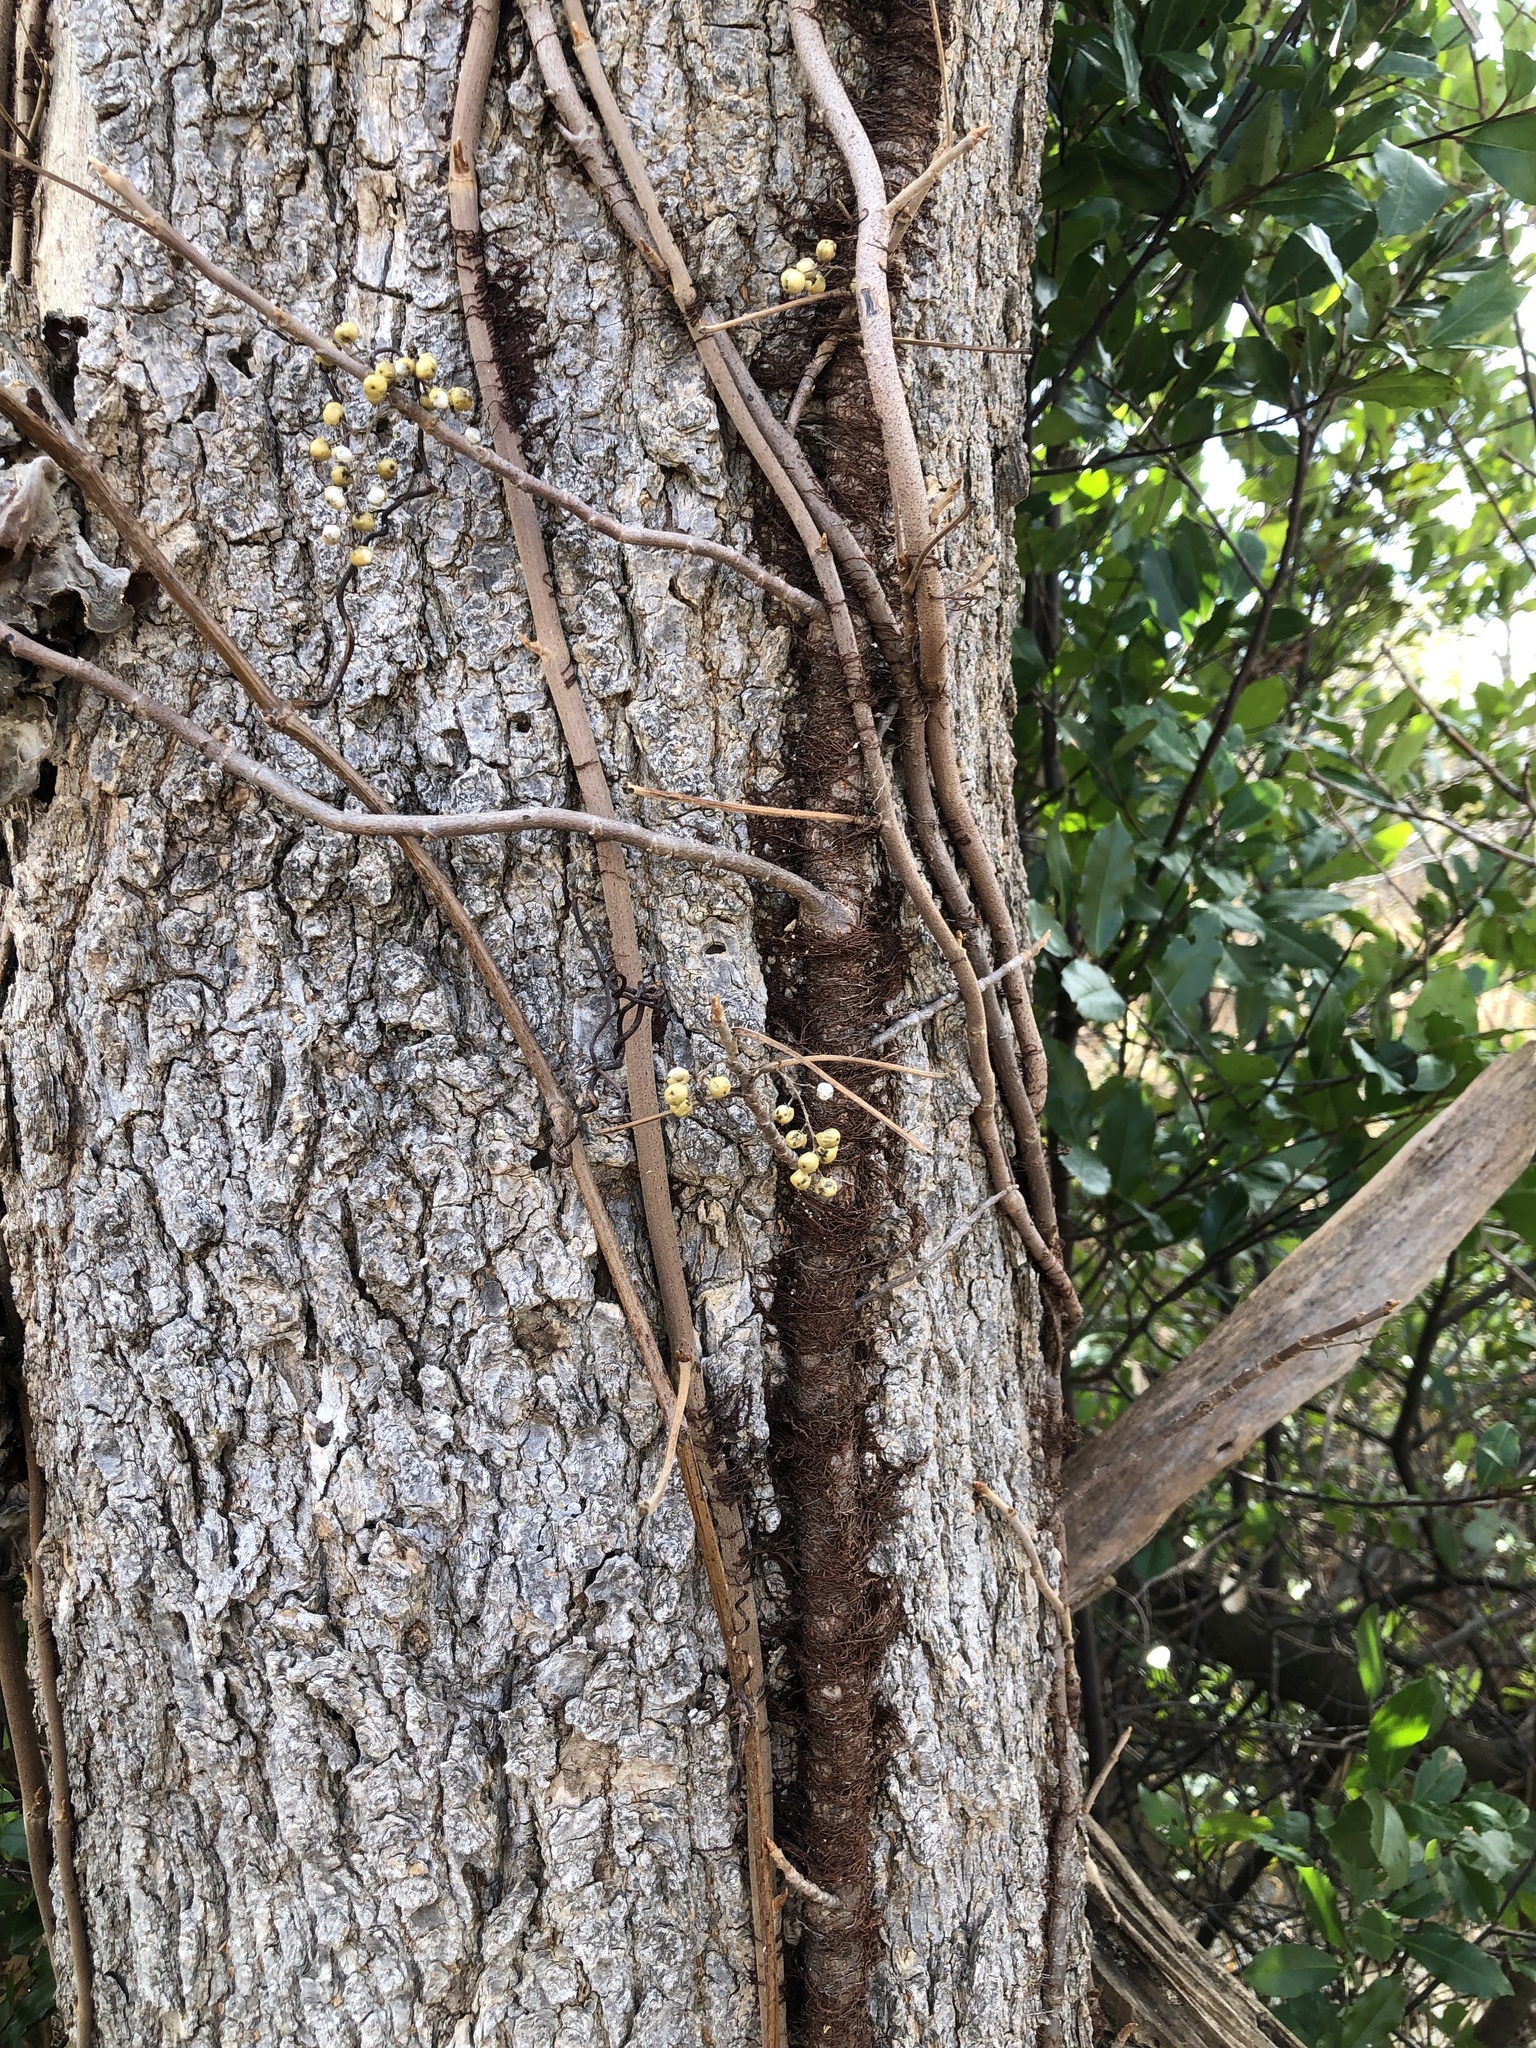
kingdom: Plantae
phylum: Tracheophyta
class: Magnoliopsida
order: Sapindales
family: Anacardiaceae
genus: Toxicodendron
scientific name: Toxicodendron radicans
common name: Poison ivy
